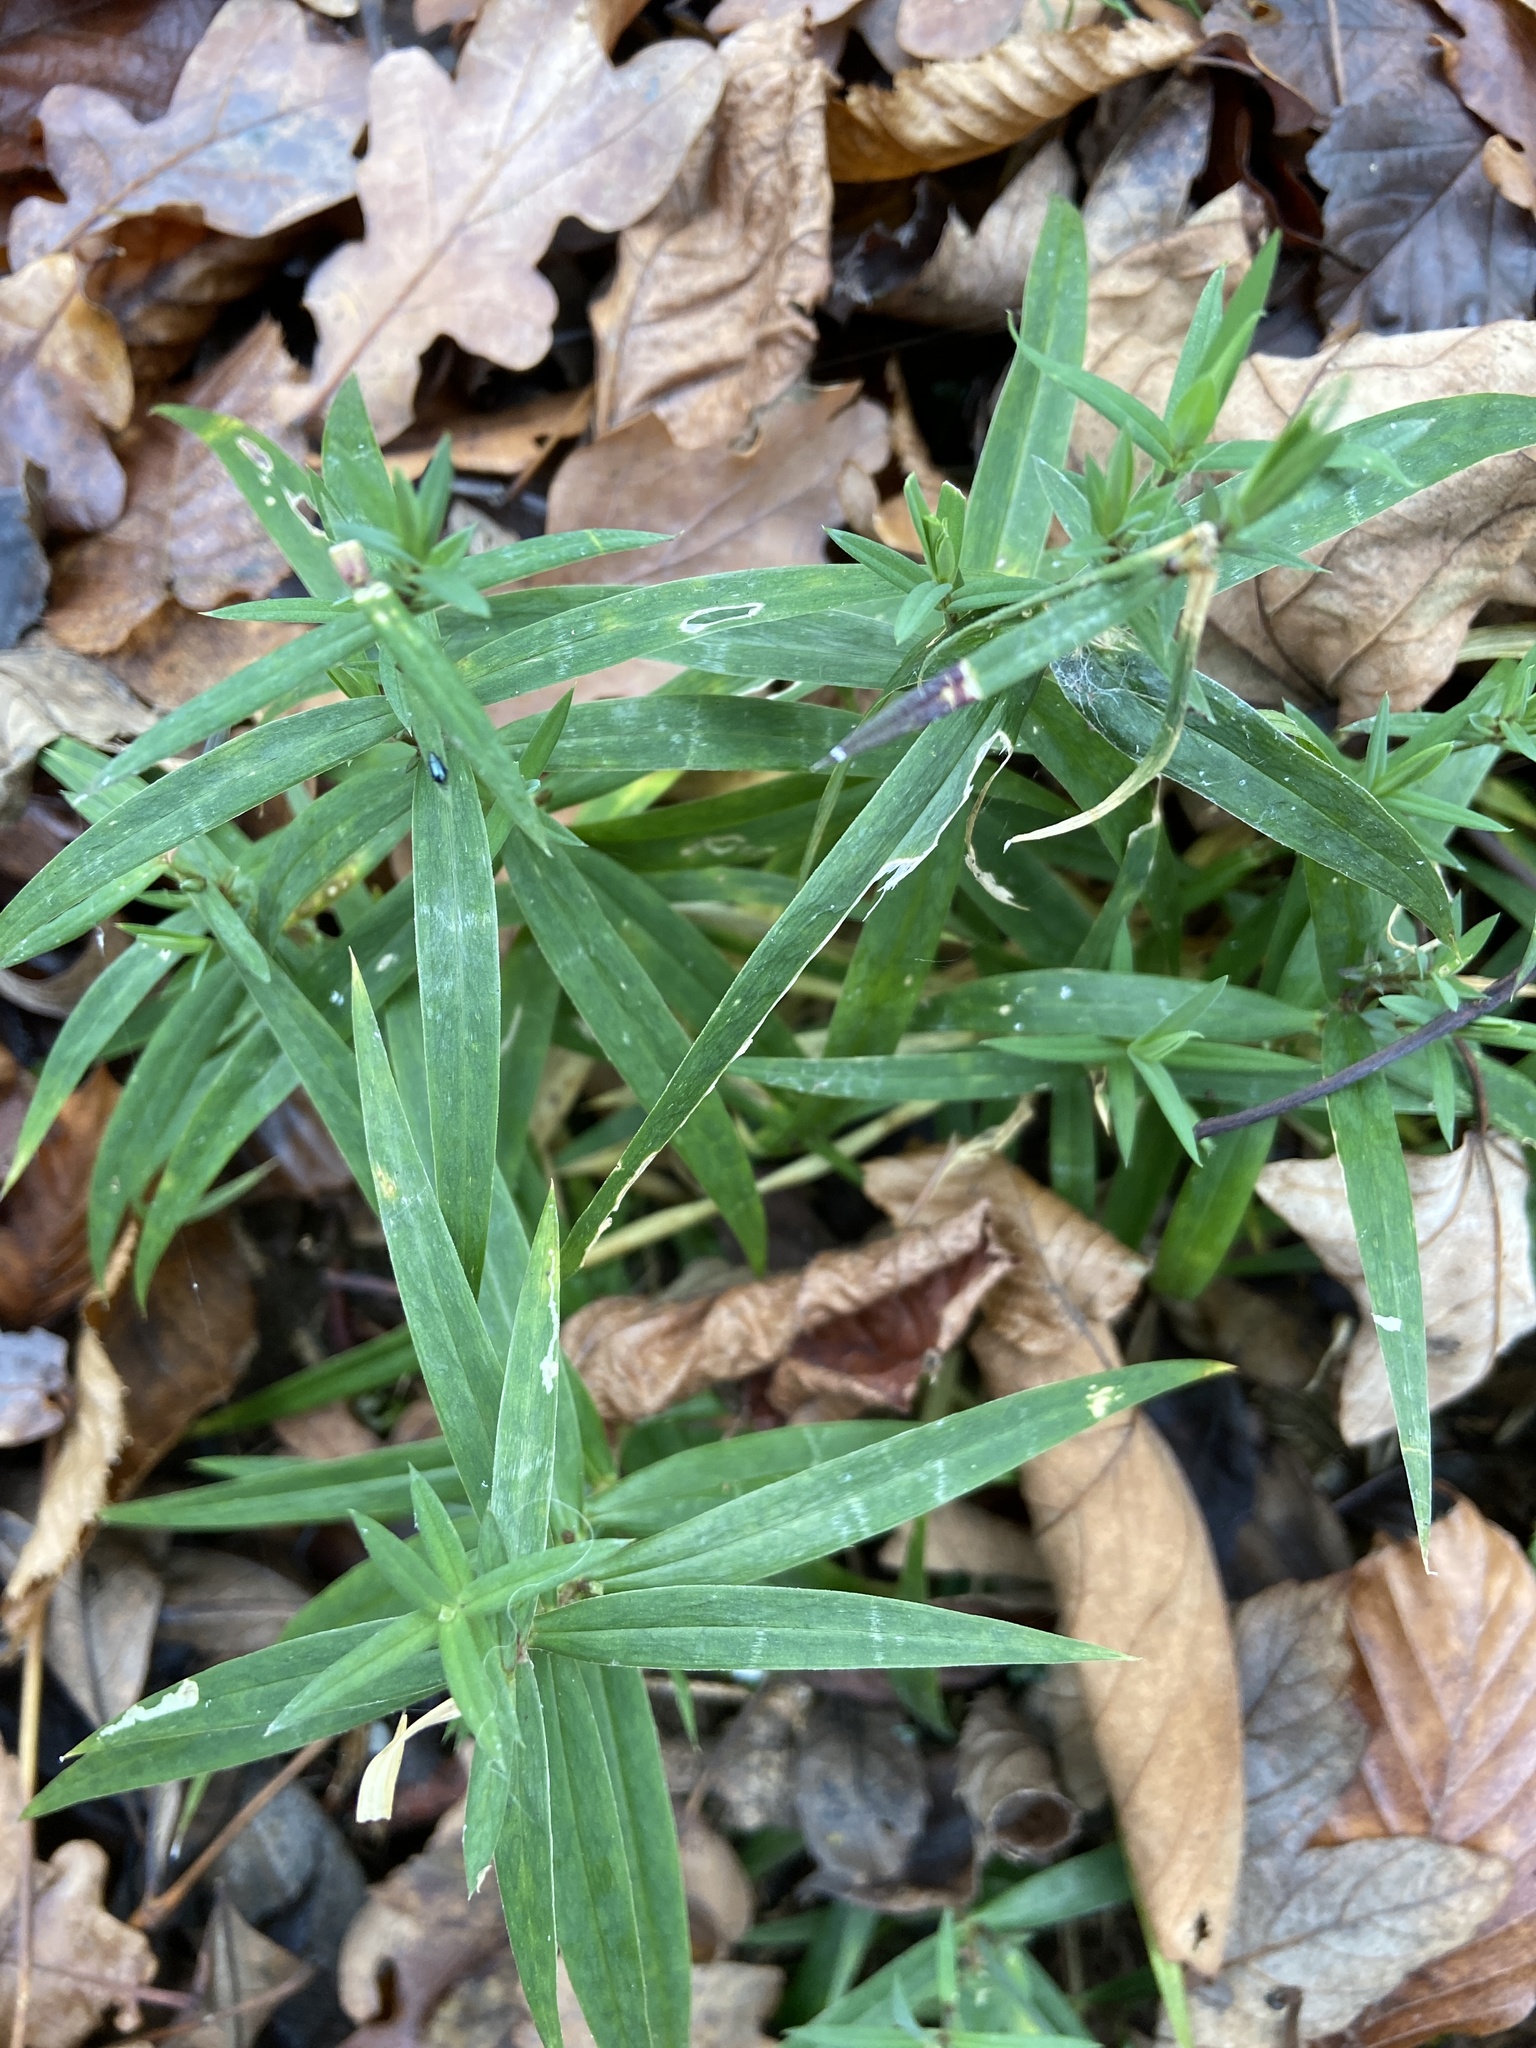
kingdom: Plantae
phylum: Tracheophyta
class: Magnoliopsida
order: Caryophyllales
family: Caryophyllaceae
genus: Rabelera
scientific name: Rabelera holostea
